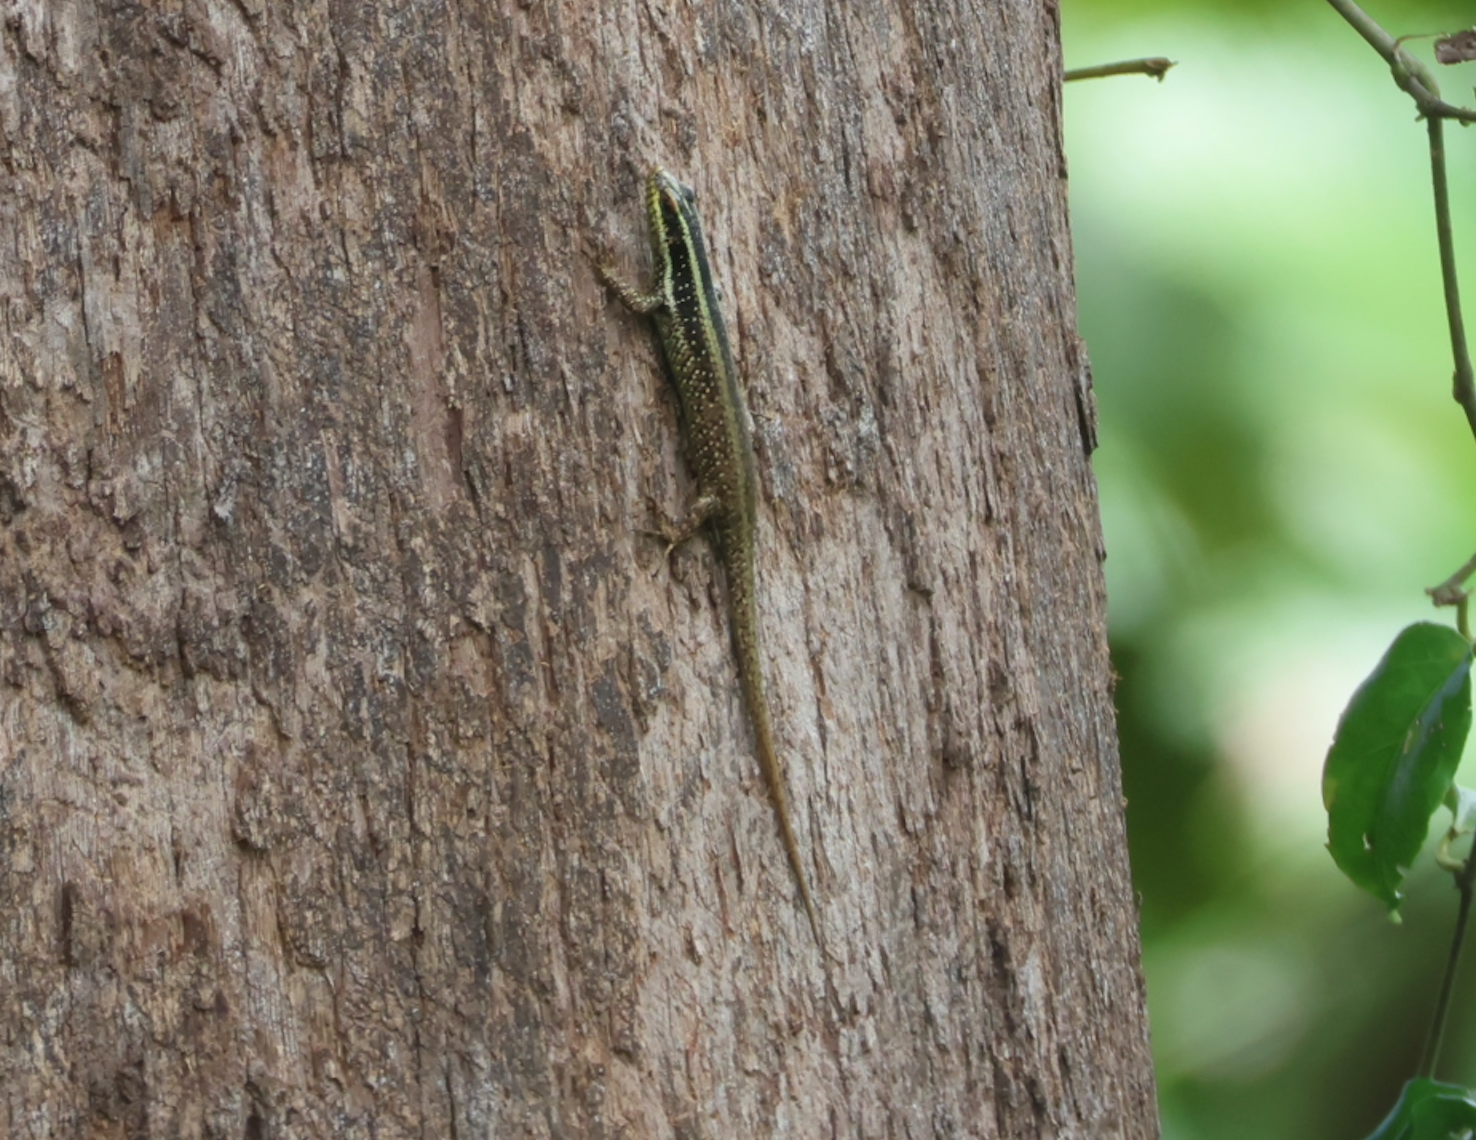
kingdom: Animalia
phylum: Chordata
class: Squamata
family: Scincidae
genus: Dasia
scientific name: Dasia vittata
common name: Borneo skink
